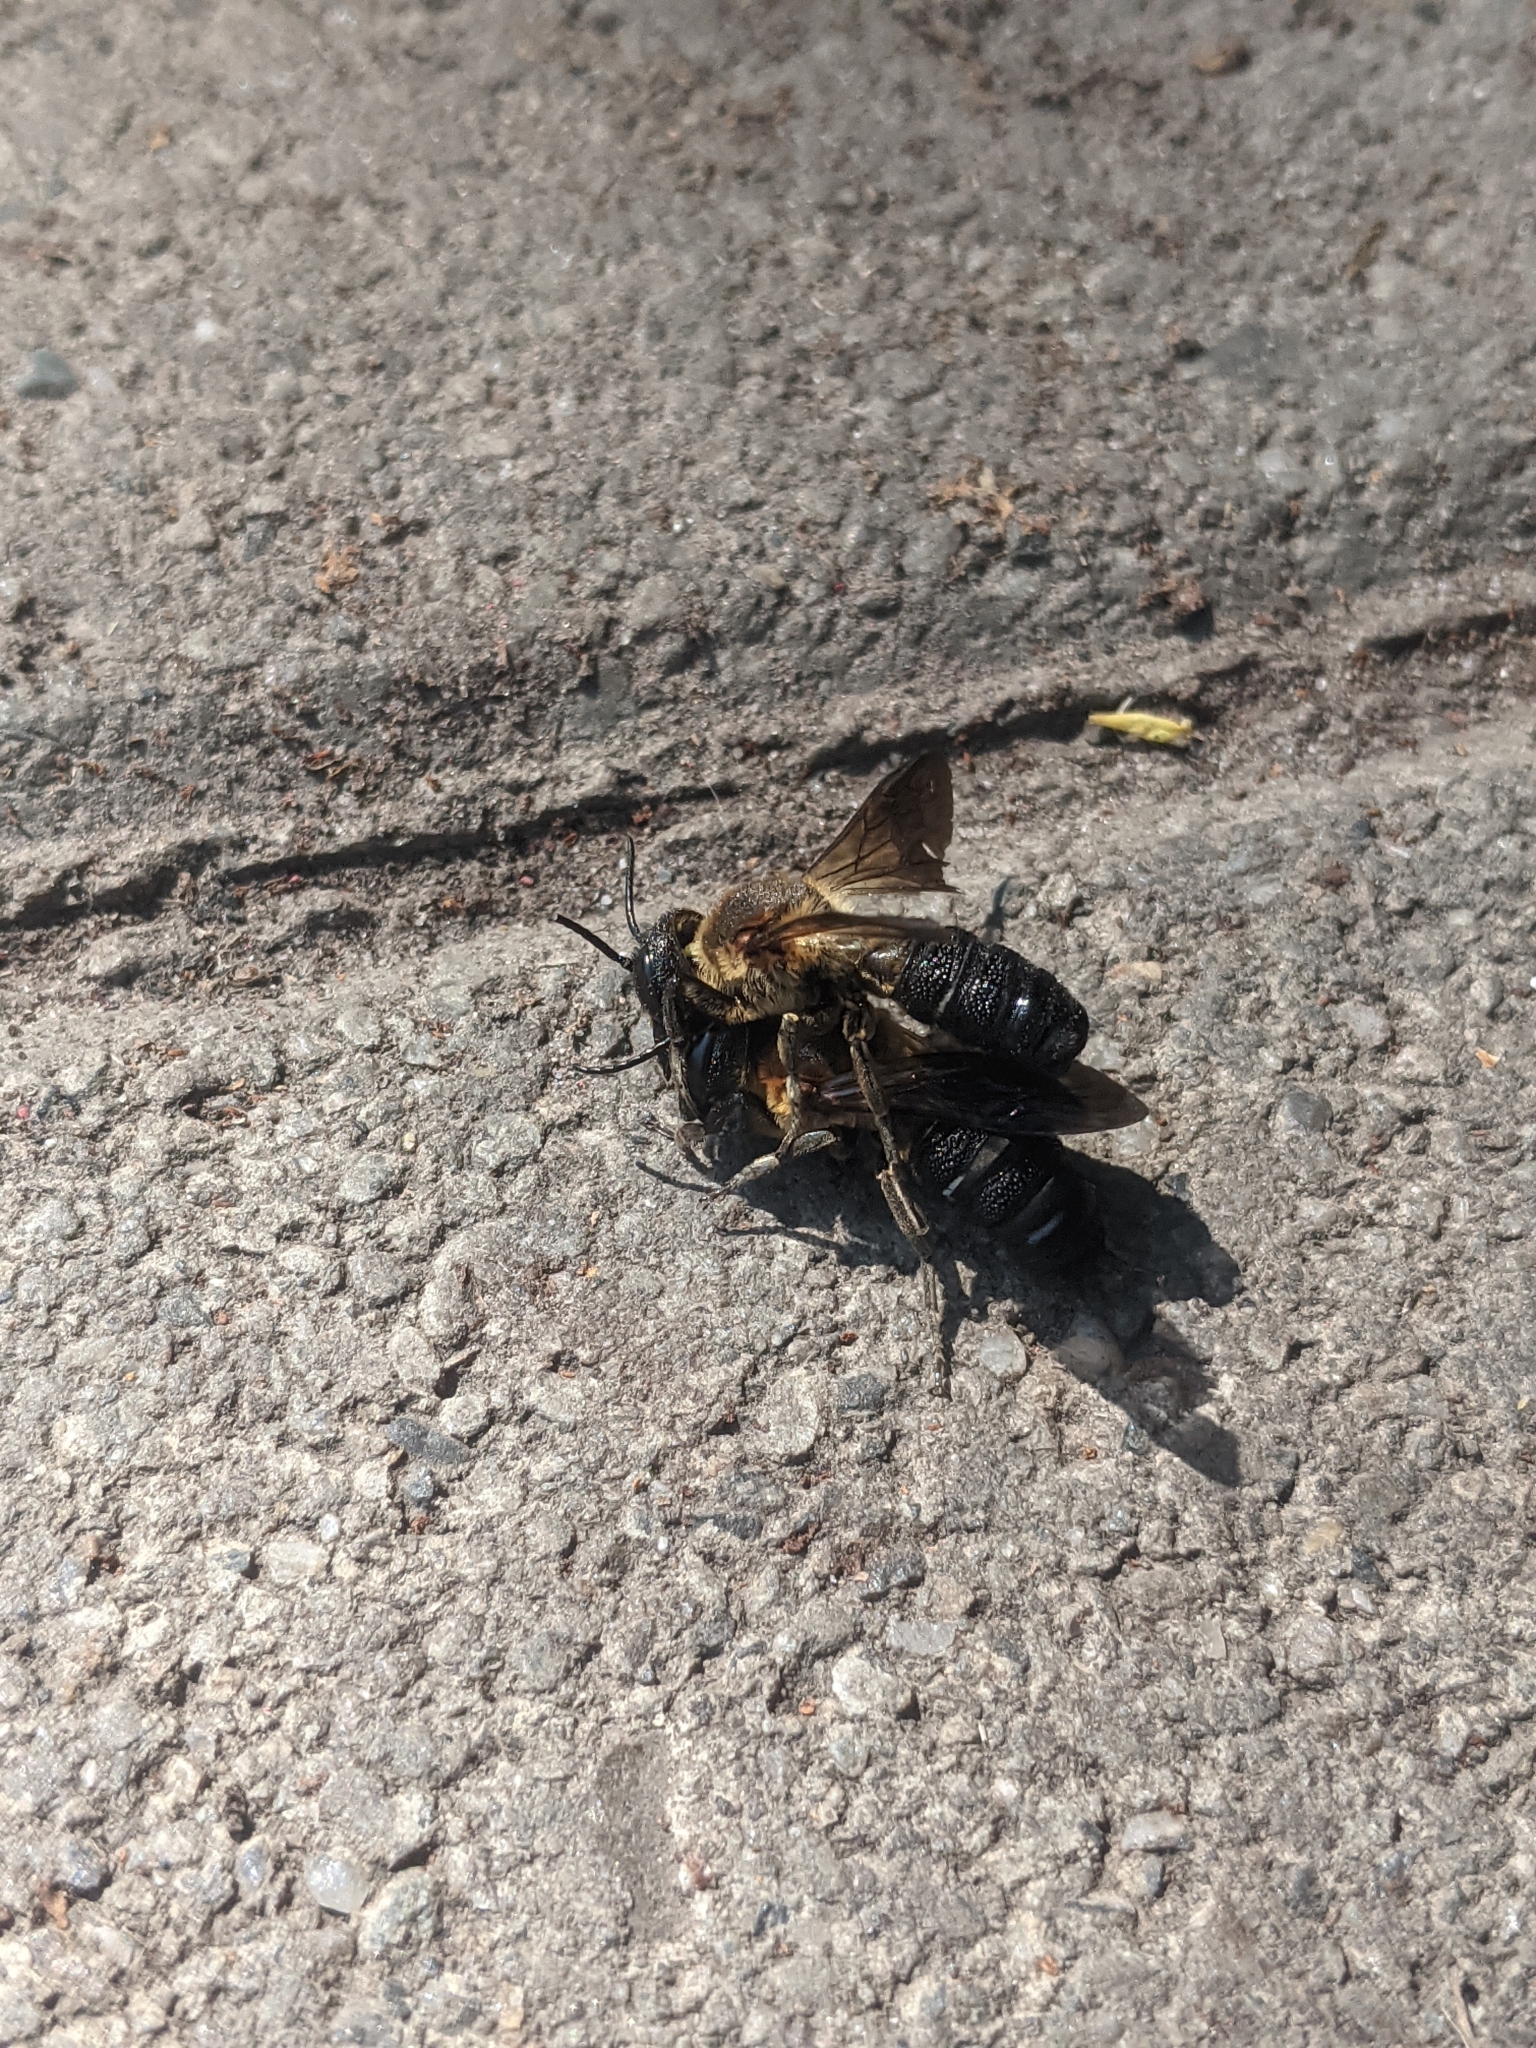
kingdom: Animalia
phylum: Arthropoda
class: Insecta
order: Hymenoptera
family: Megachilidae
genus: Megachile
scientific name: Megachile sculpturalis
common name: Sculptured resin bee
